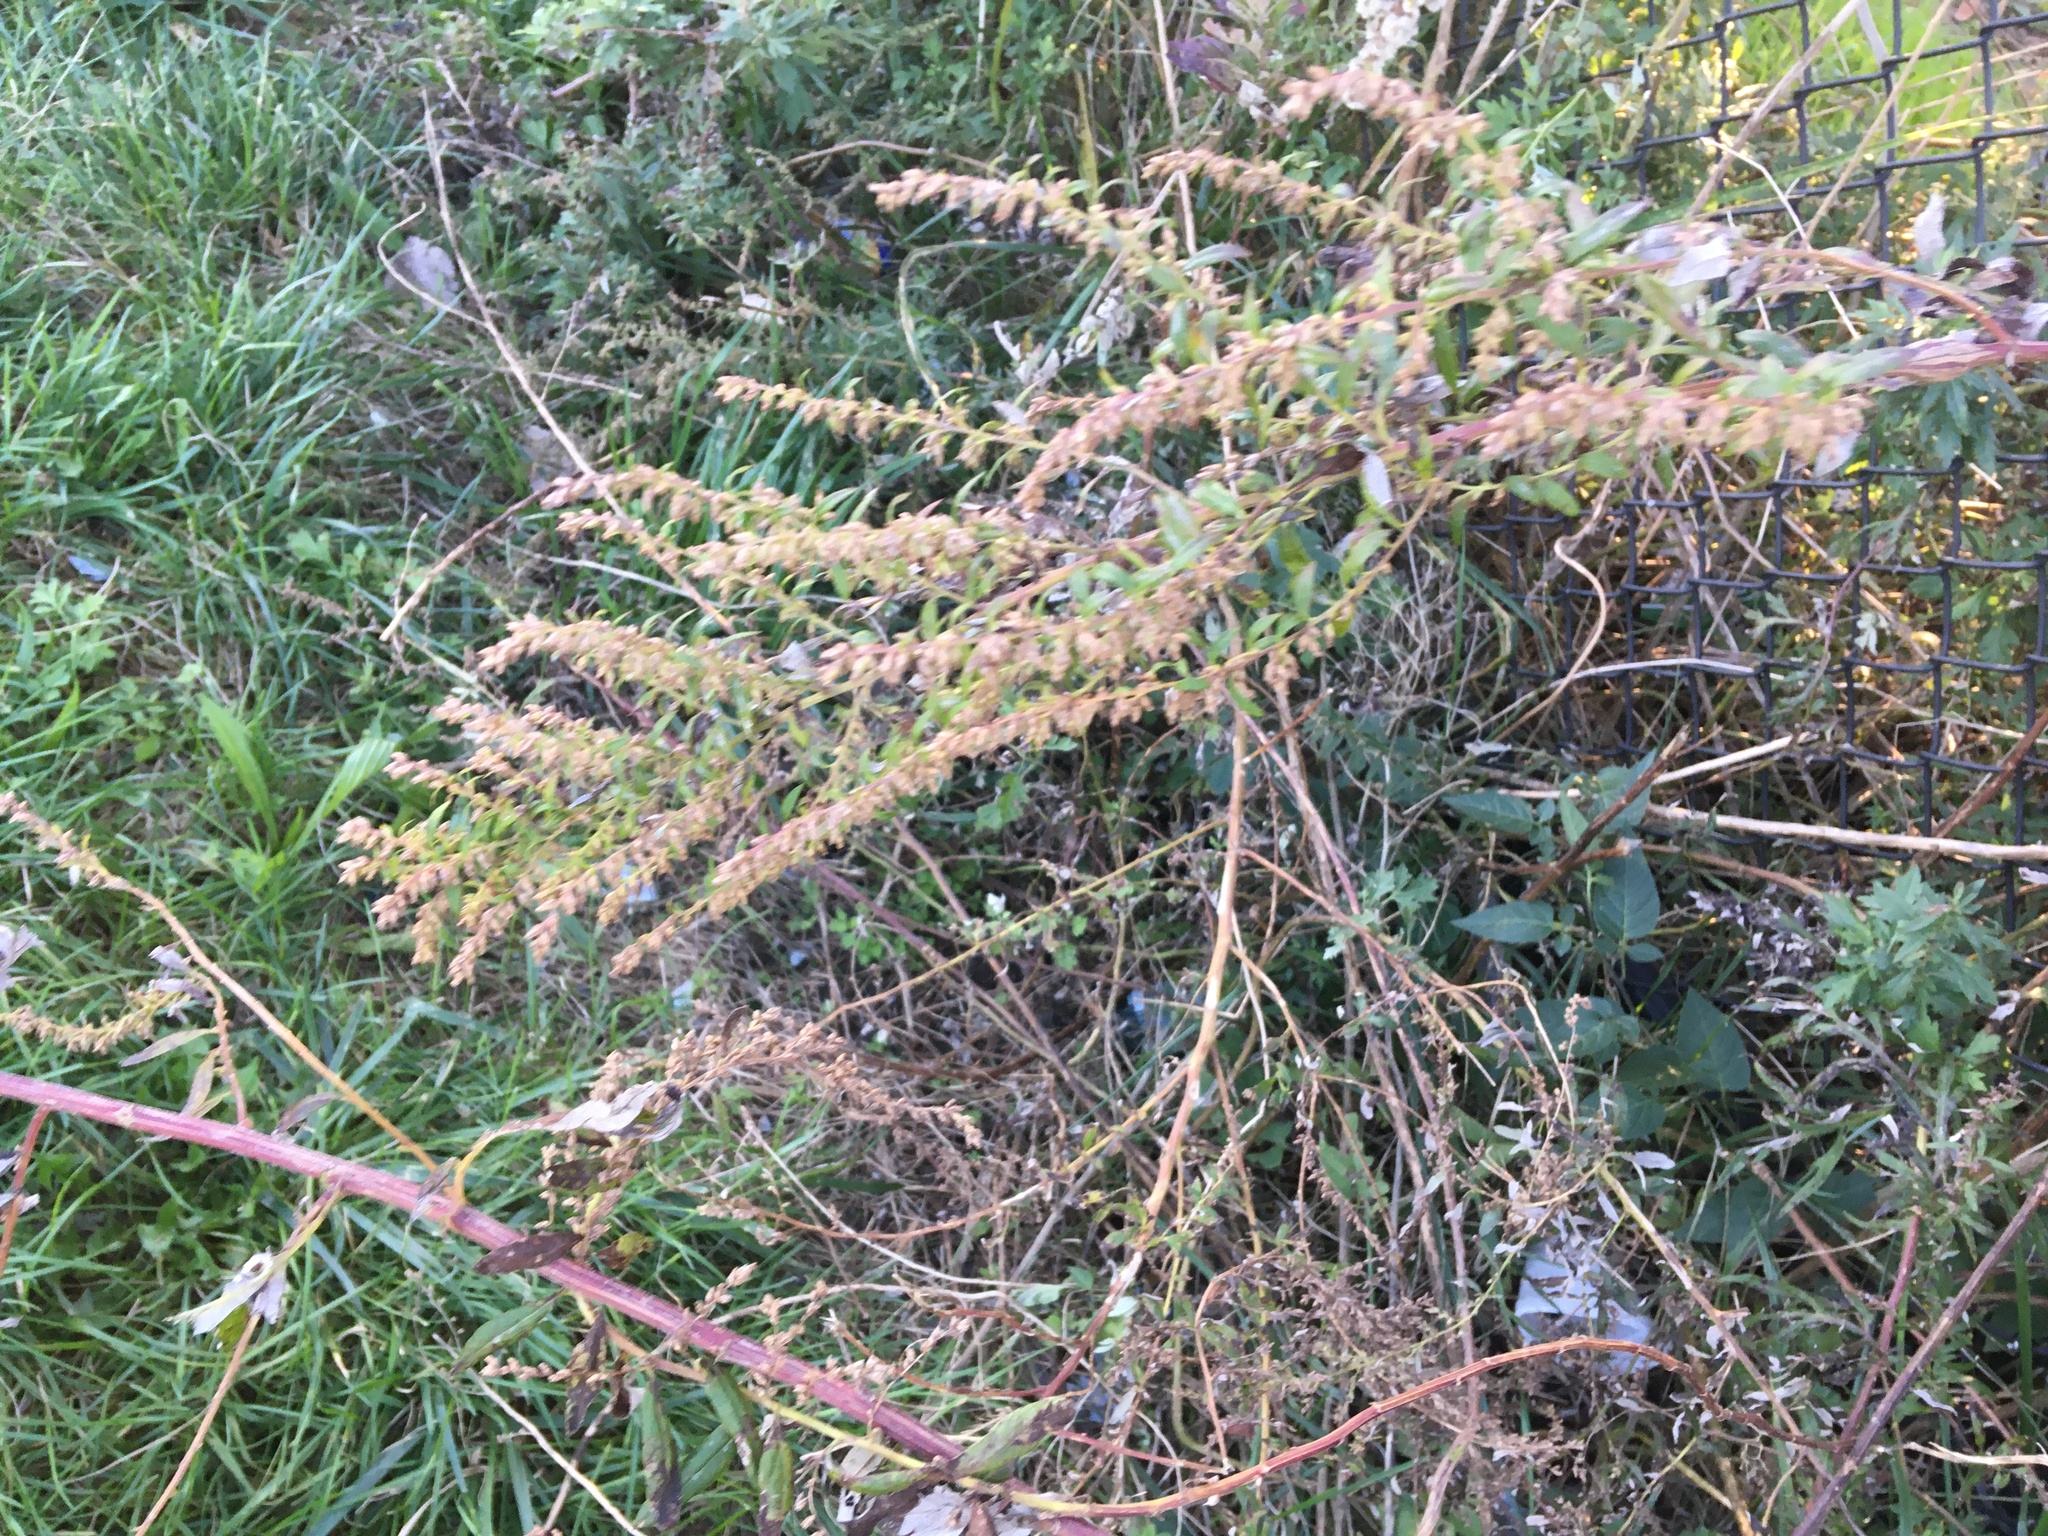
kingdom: Plantae
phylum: Tracheophyta
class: Magnoliopsida
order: Asterales
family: Asteraceae
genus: Artemisia
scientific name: Artemisia vulgaris
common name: Mugwort
